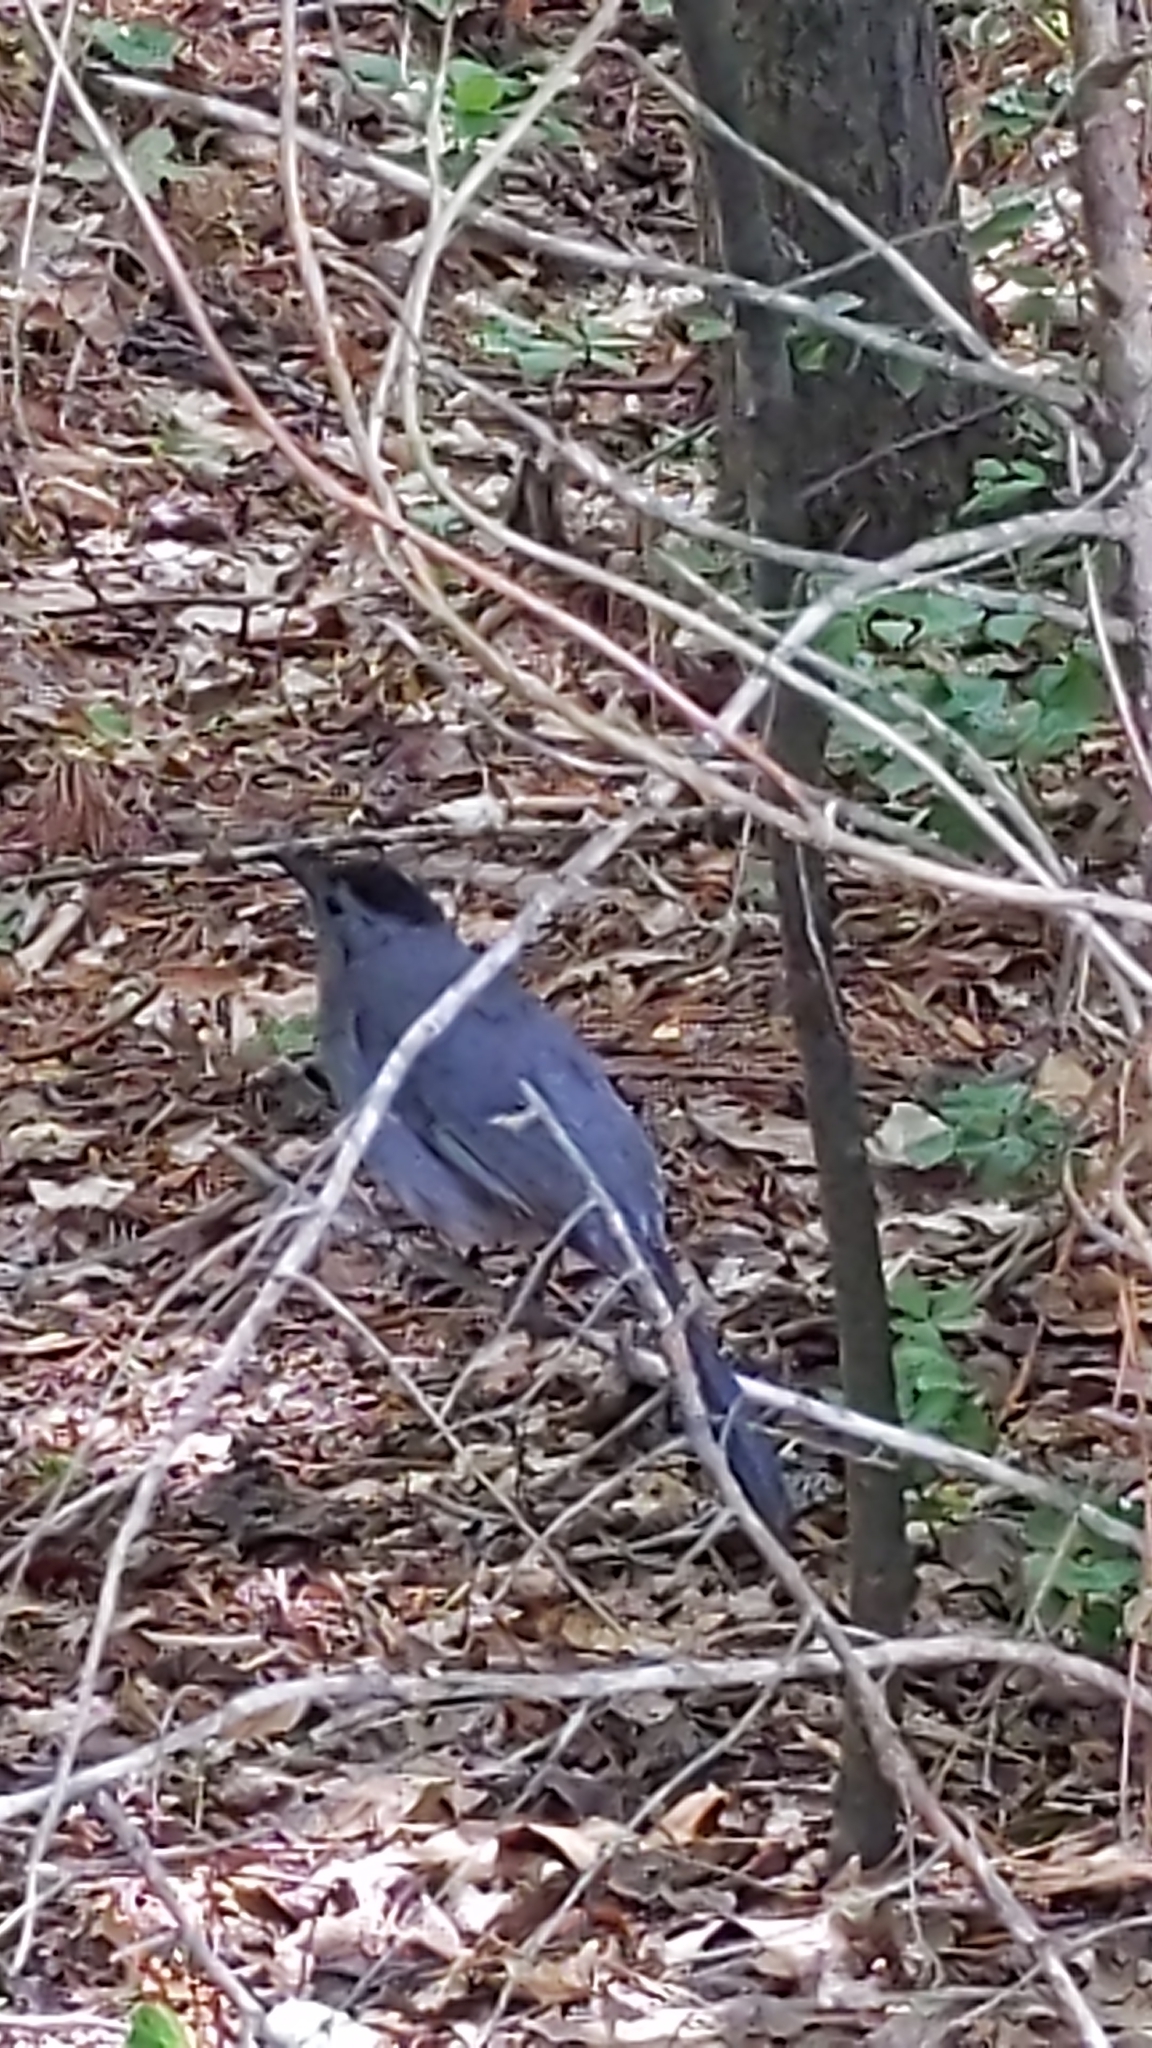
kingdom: Animalia
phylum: Chordata
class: Aves
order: Passeriformes
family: Mimidae
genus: Dumetella
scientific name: Dumetella carolinensis
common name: Gray catbird
